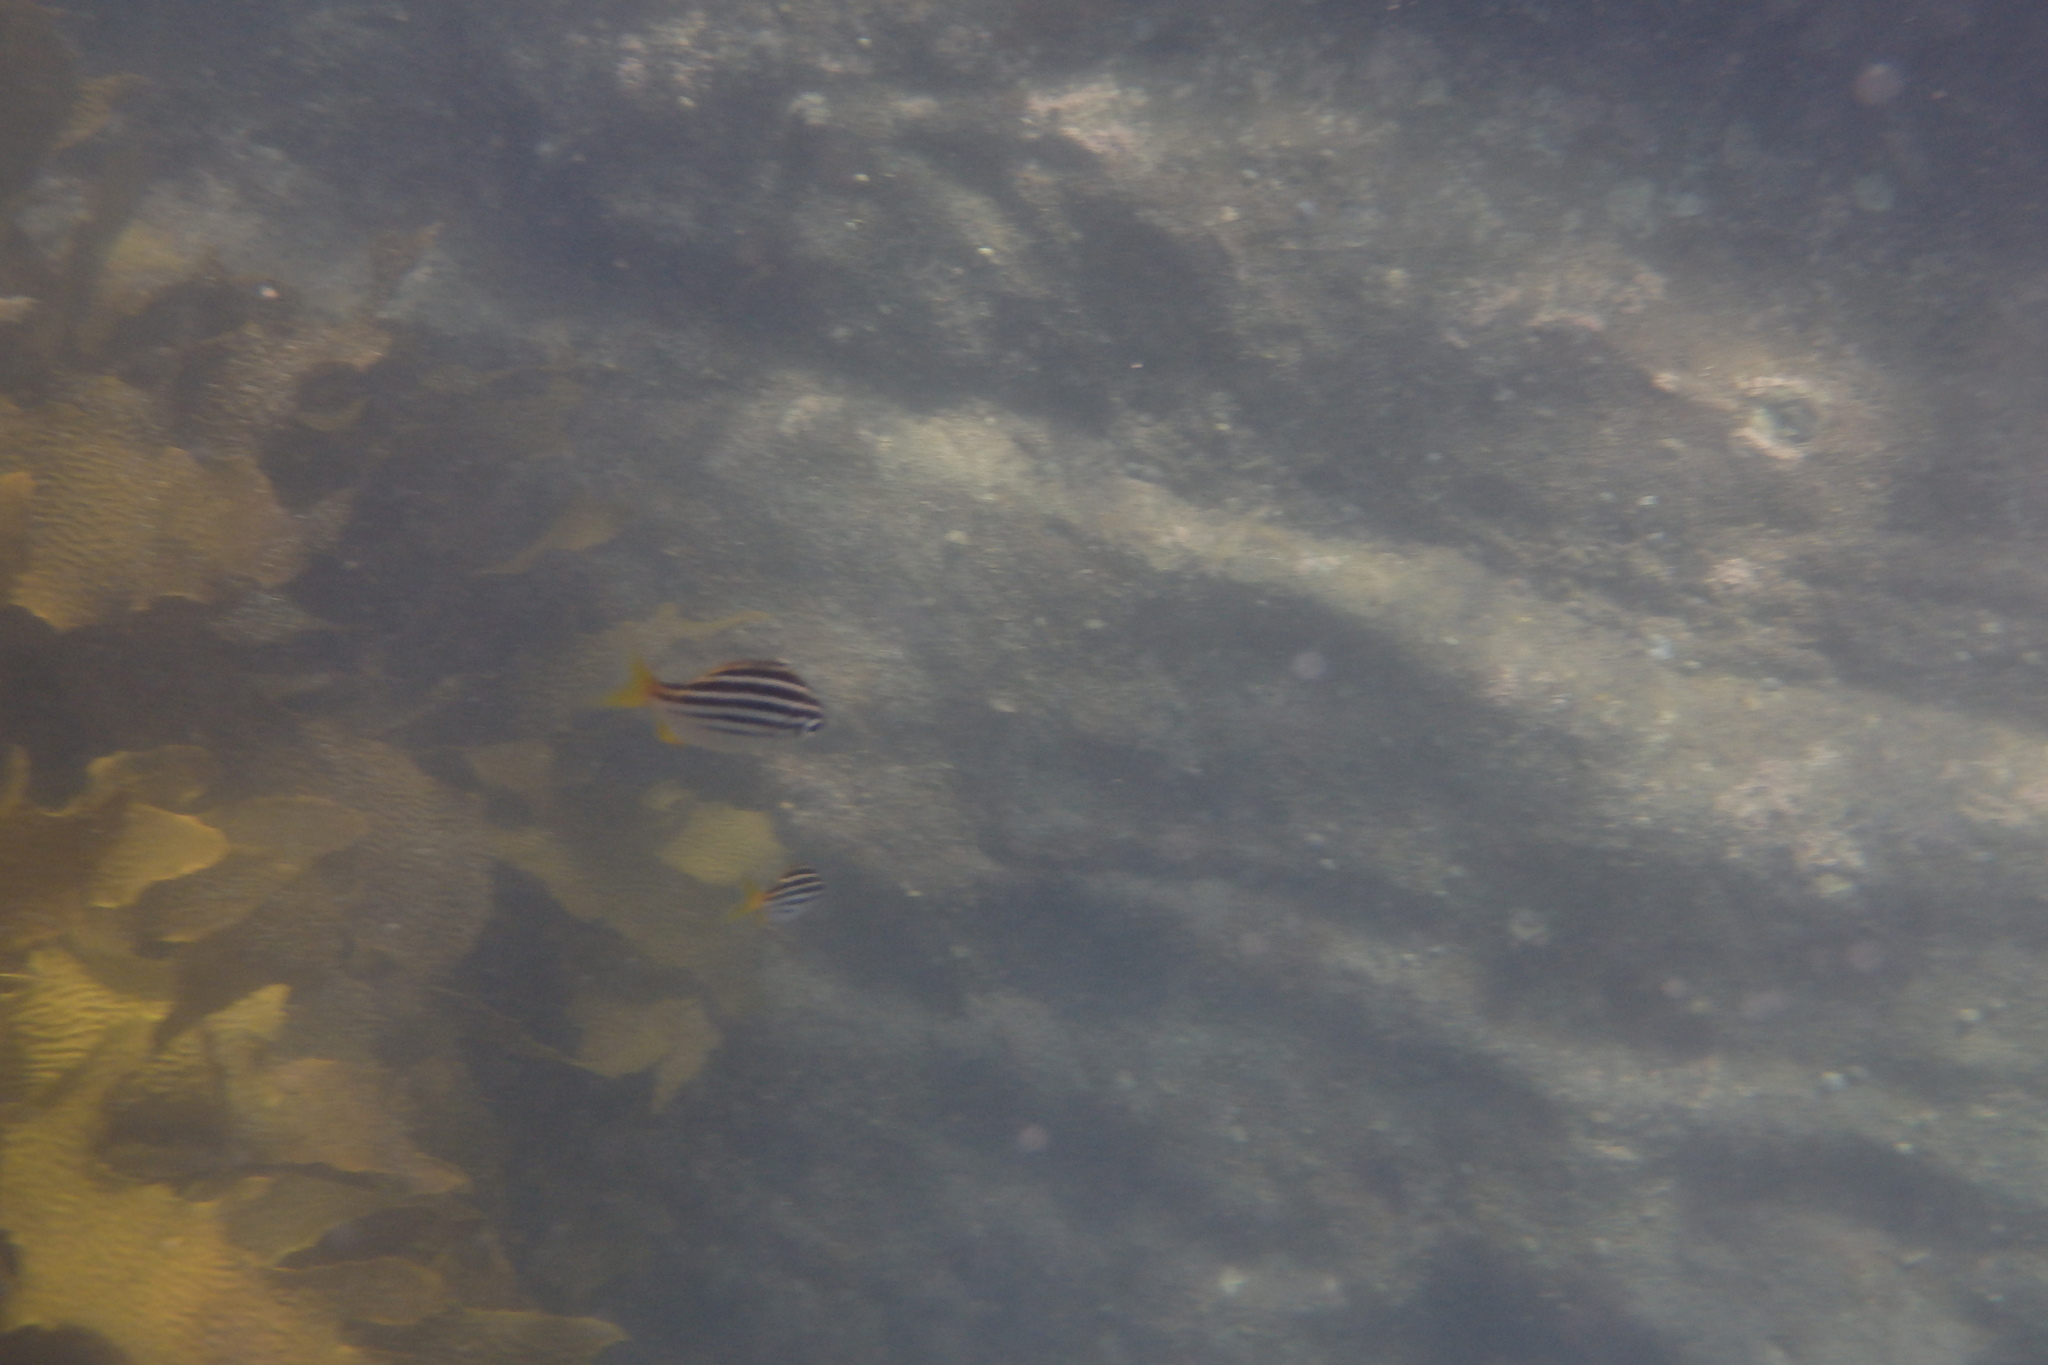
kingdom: Animalia
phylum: Chordata
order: Perciformes
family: Kyphosidae
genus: Atypichthys
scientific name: Atypichthys strigatus
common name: Australian mado
